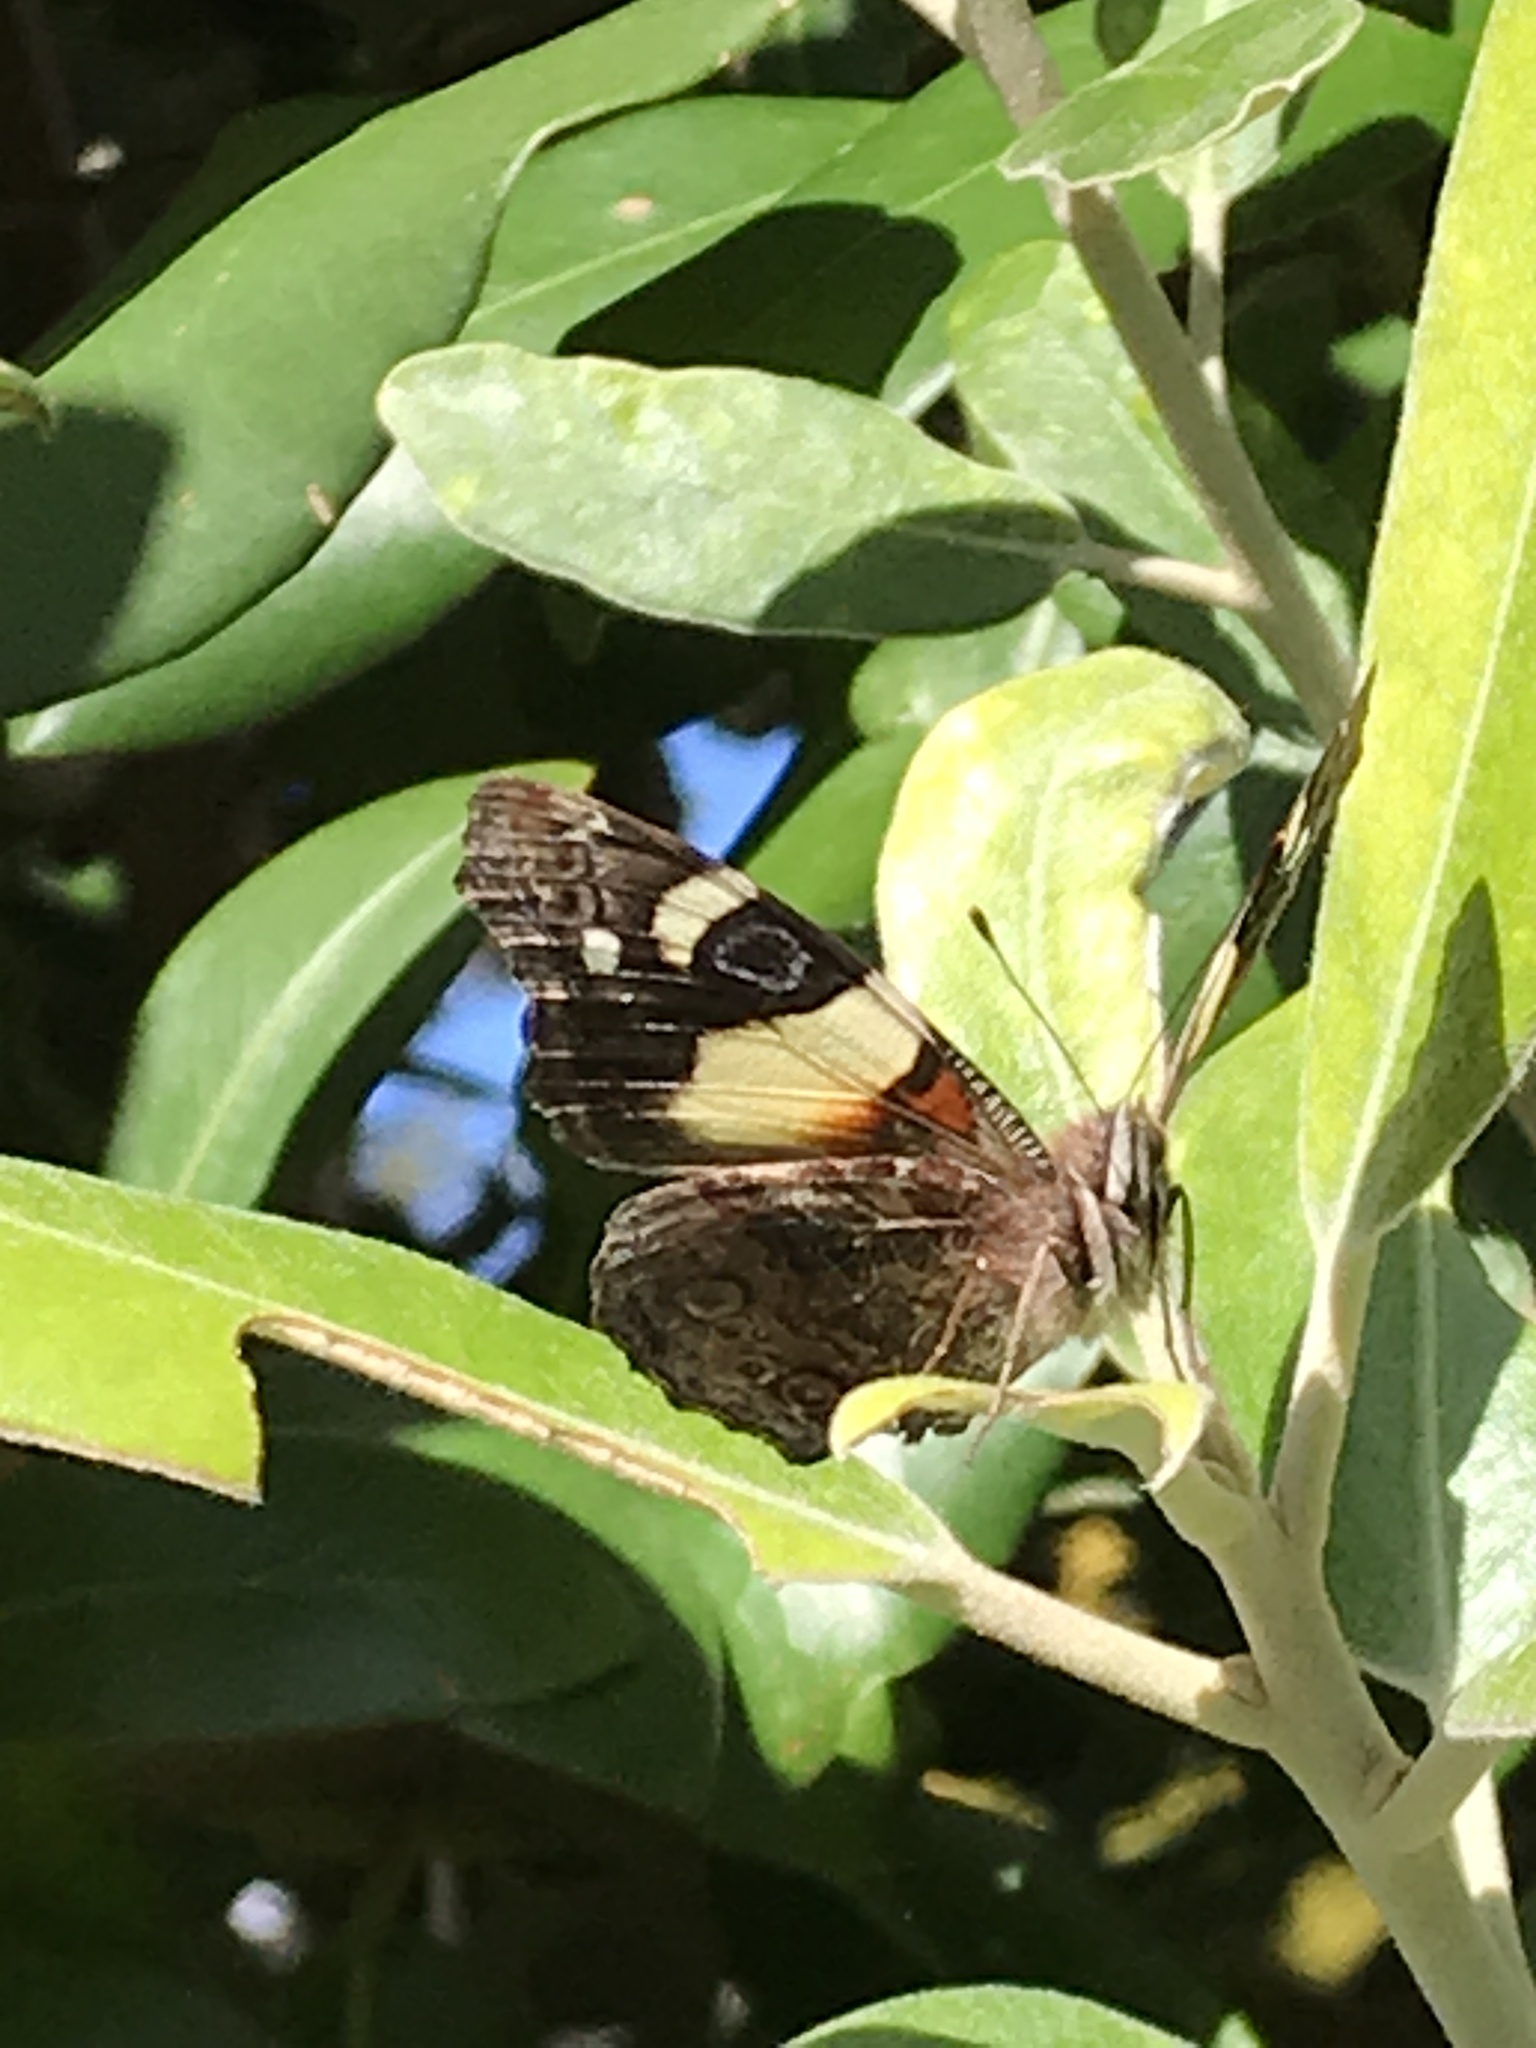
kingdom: Animalia
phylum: Arthropoda
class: Insecta
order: Lepidoptera
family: Nymphalidae
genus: Vanessa
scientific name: Vanessa itea
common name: Yellow admiral
